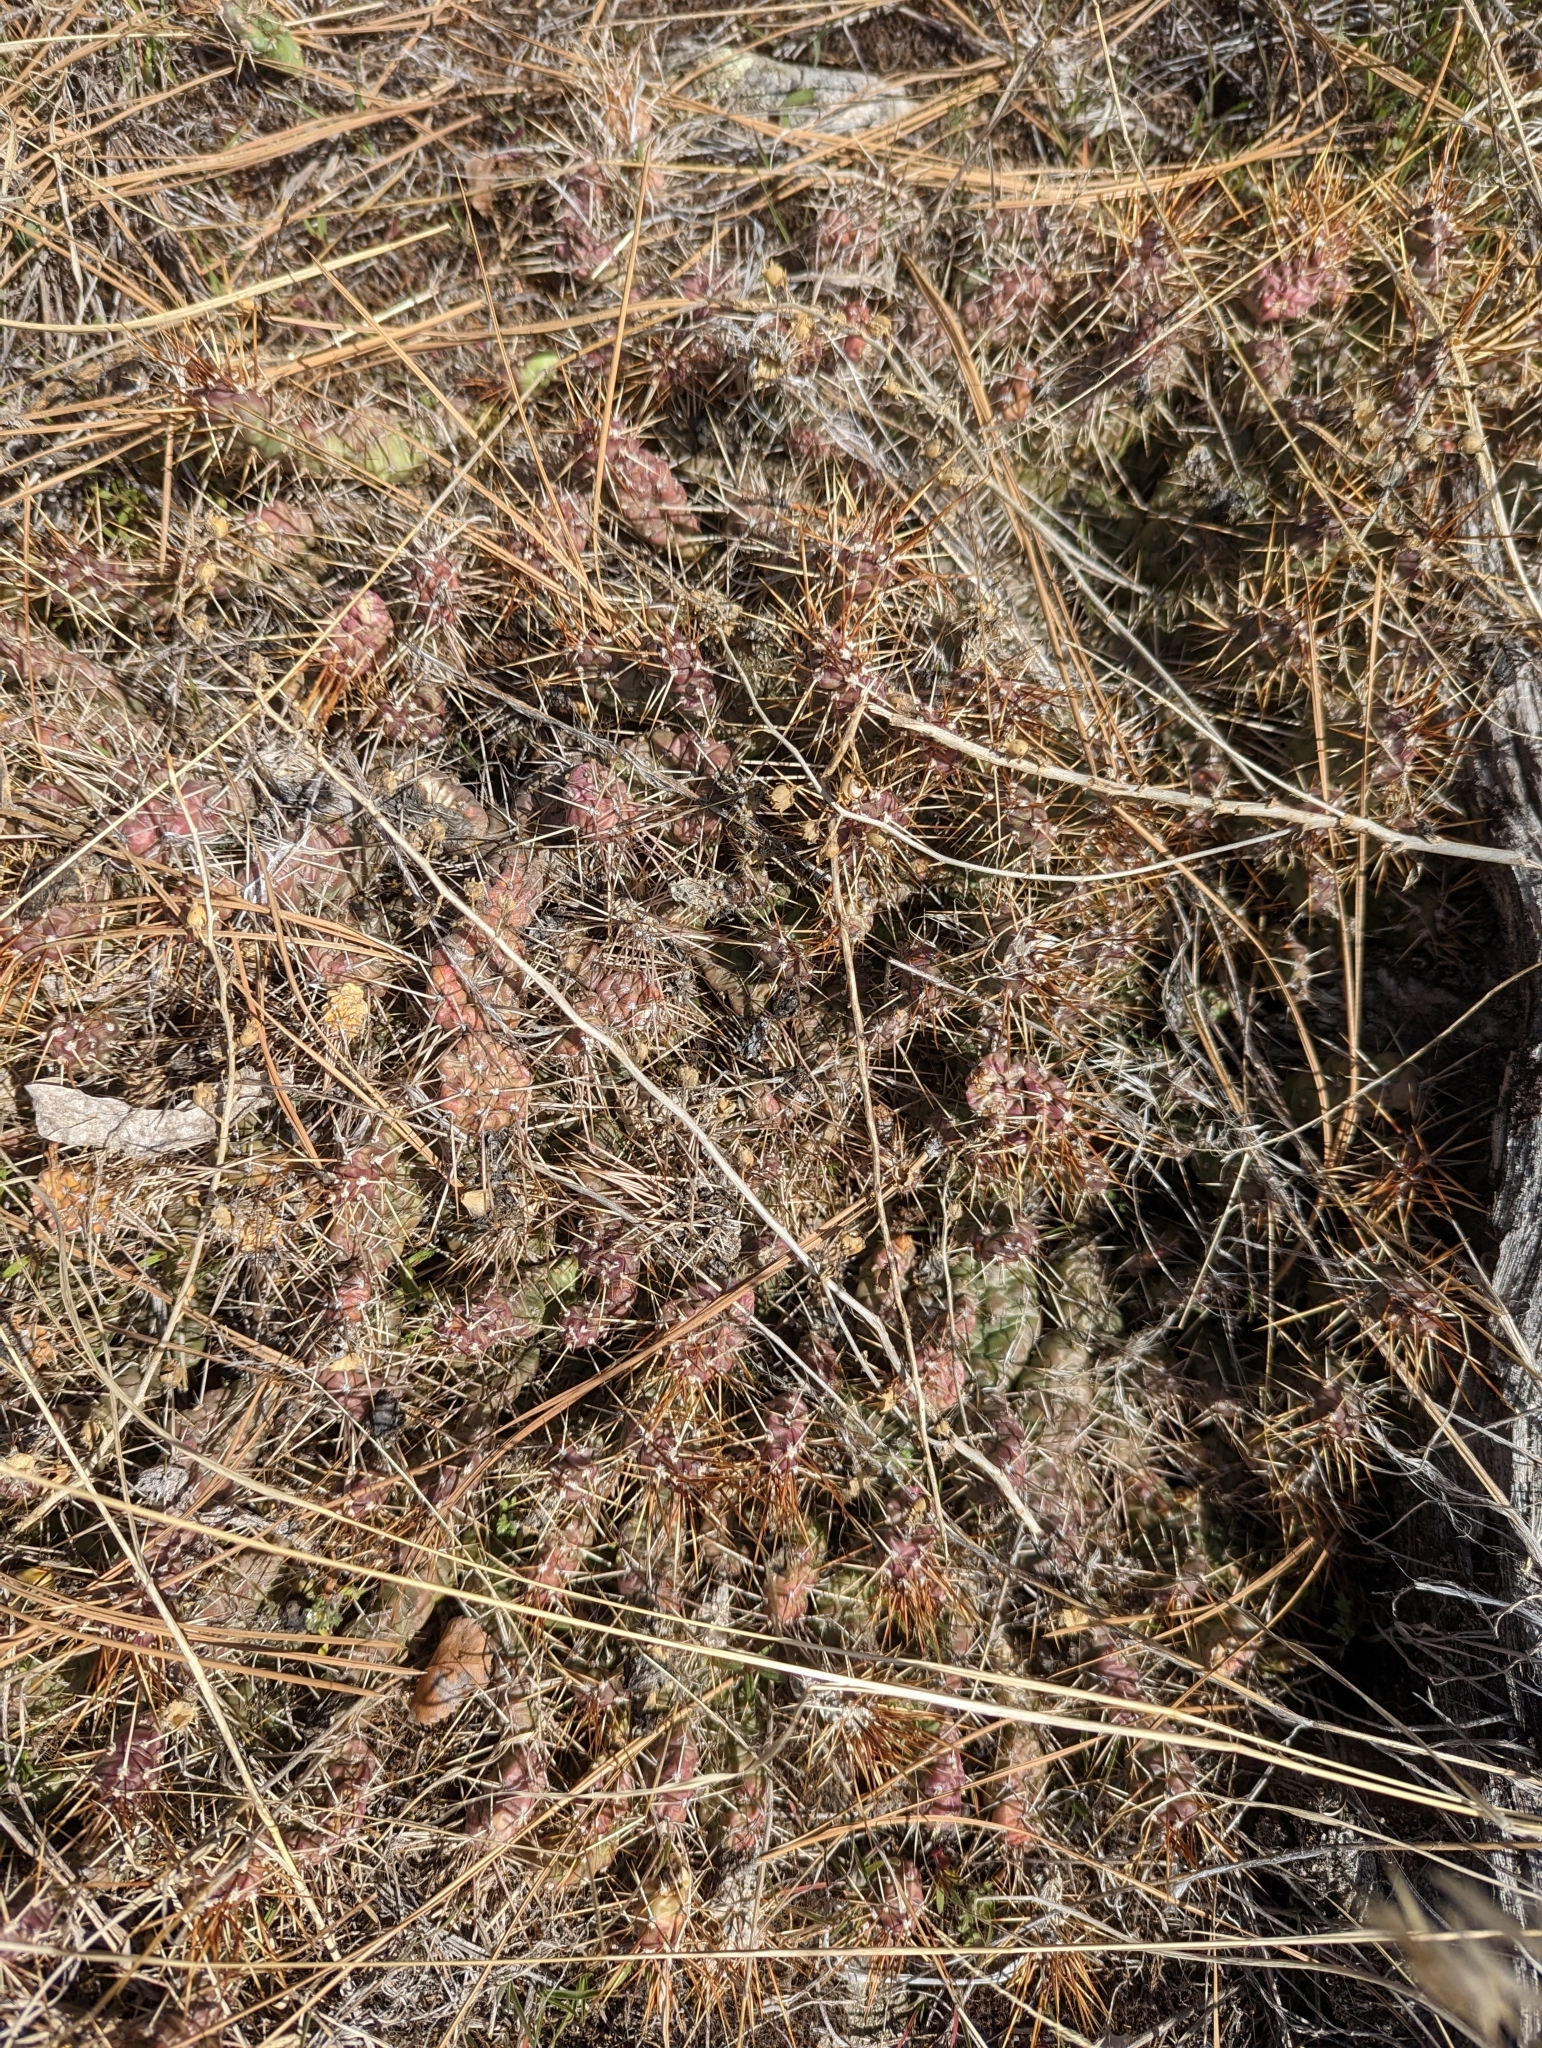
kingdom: Plantae
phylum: Tracheophyta
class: Magnoliopsida
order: Caryophyllales
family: Cactaceae
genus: Opuntia
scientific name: Opuntia fragilis
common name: Brittle cactus
